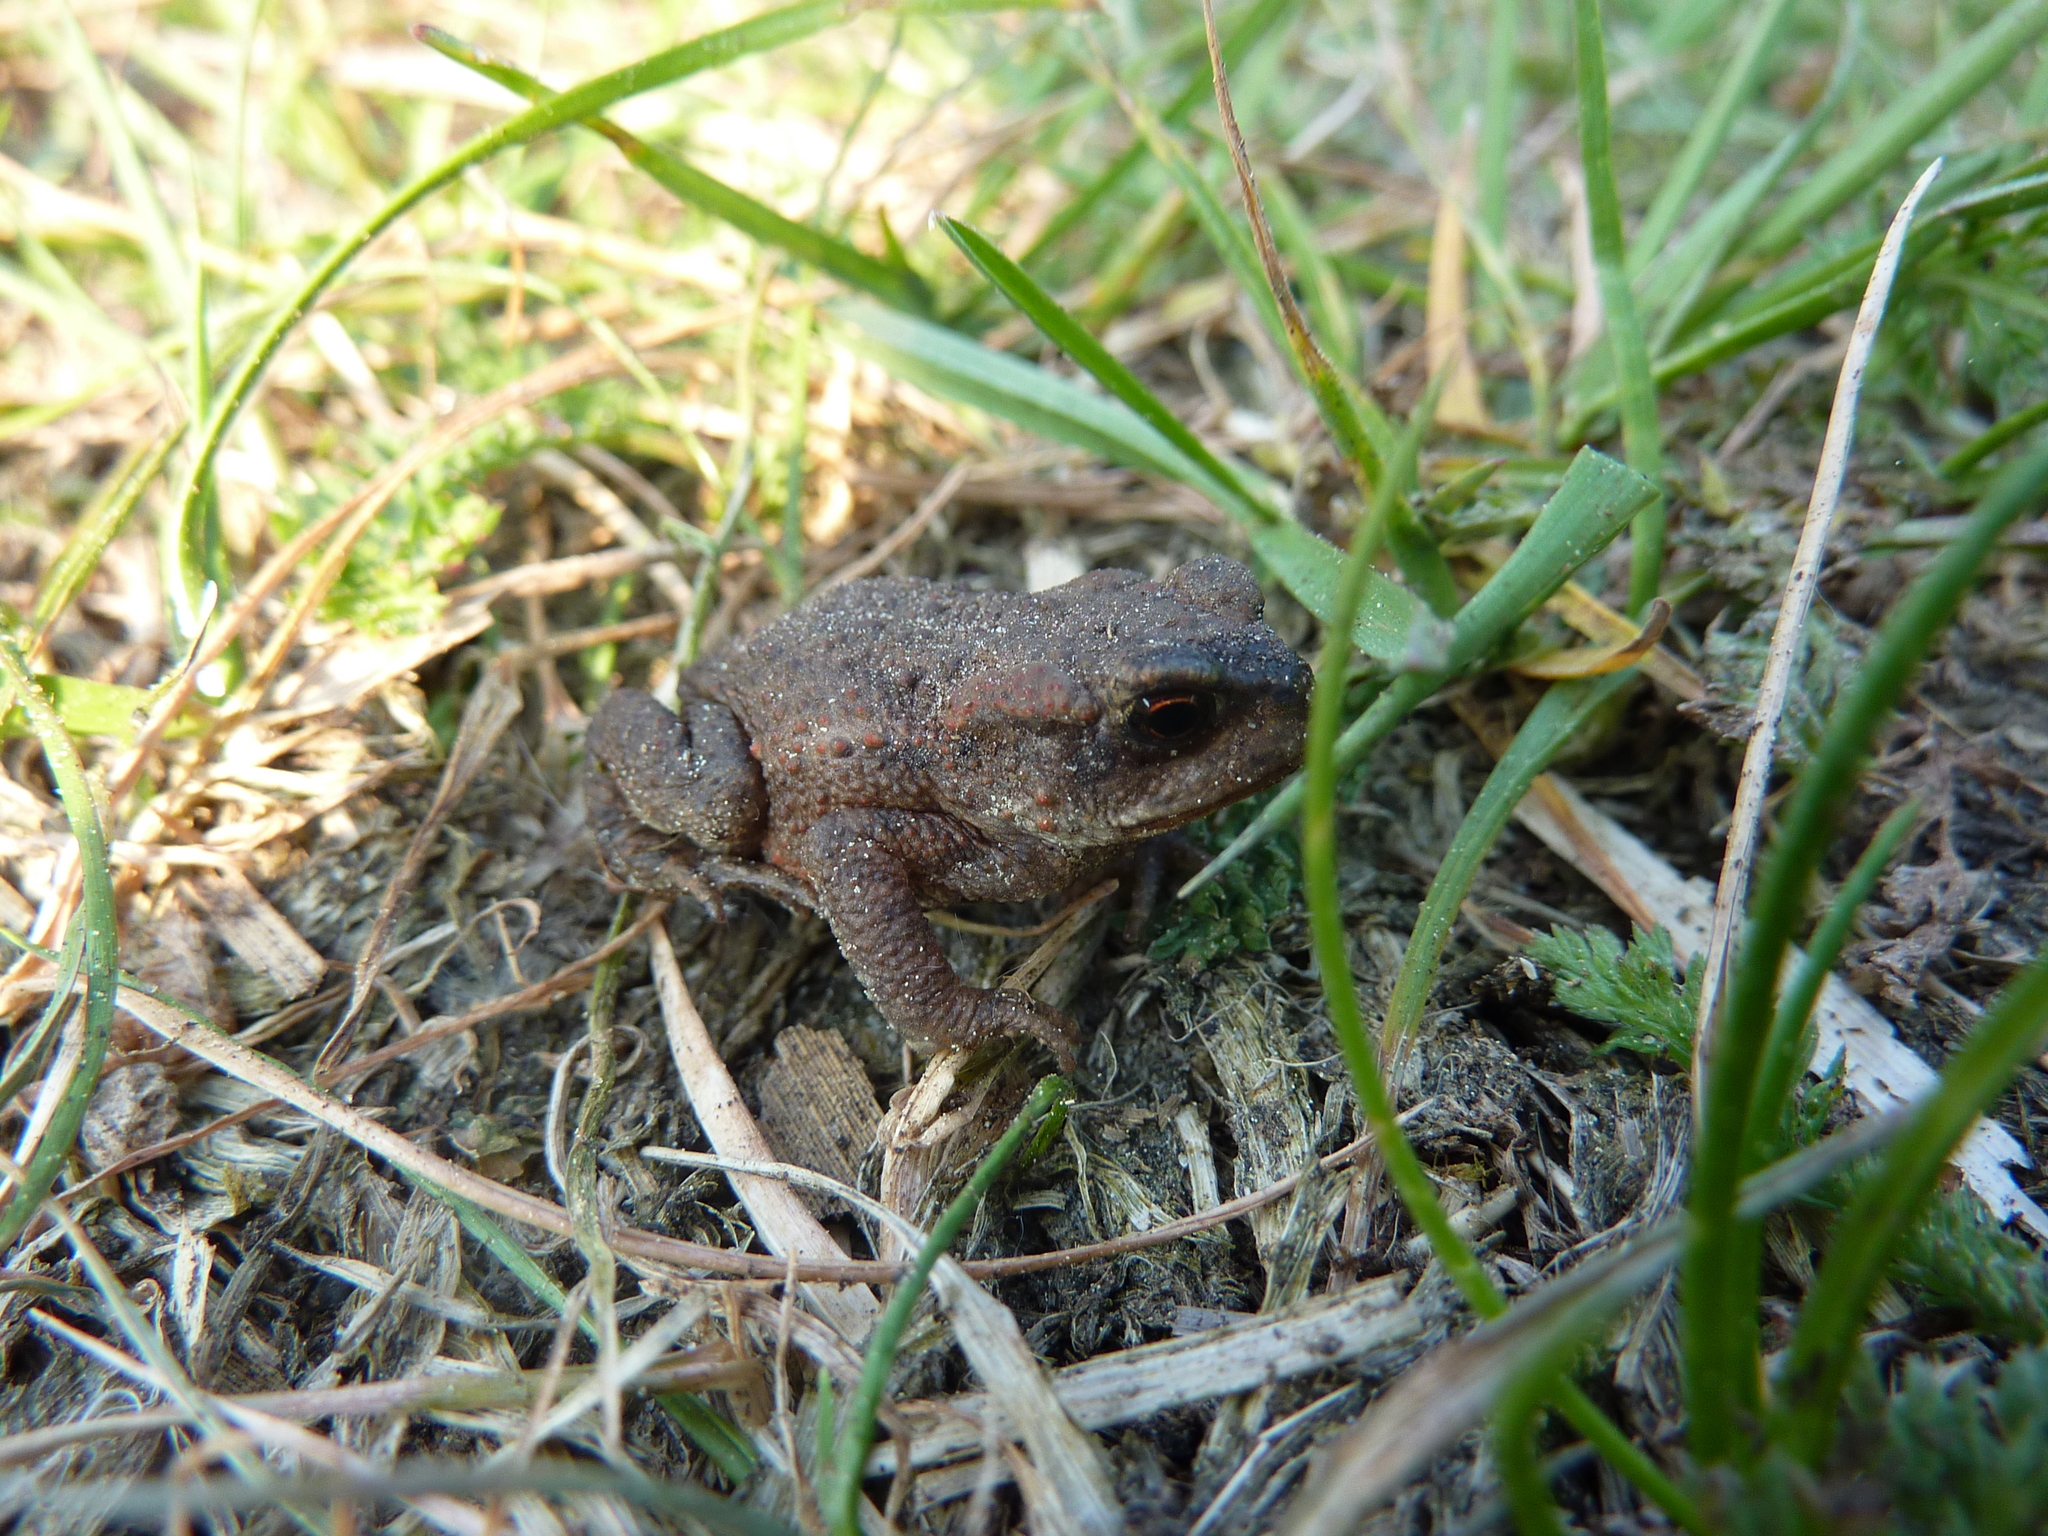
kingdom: Animalia
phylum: Chordata
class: Amphibia
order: Anura
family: Bufonidae
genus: Bufo
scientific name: Bufo bufo
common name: Common toad
